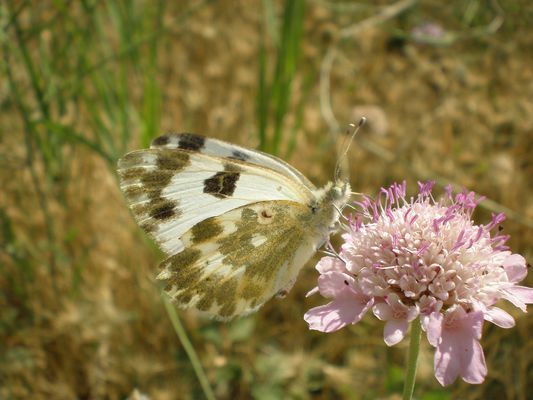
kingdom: Animalia
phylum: Arthropoda
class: Insecta
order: Lepidoptera
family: Pieridae
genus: Pontia
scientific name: Pontia daplidice
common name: Bath white
